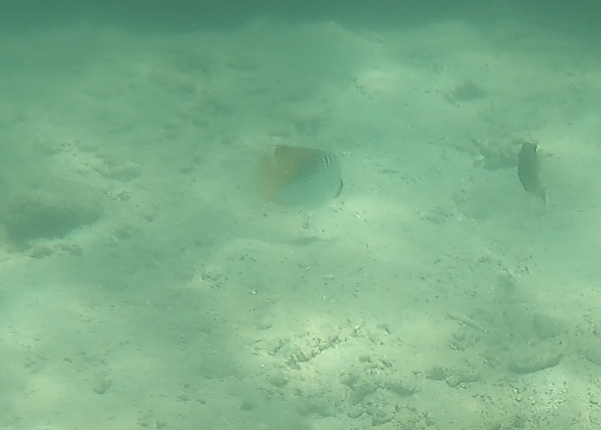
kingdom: Animalia
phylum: Chordata
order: Perciformes
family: Chaetodontidae
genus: Chaetodon
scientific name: Chaetodon auriga
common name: Threadfin butterflyfish
